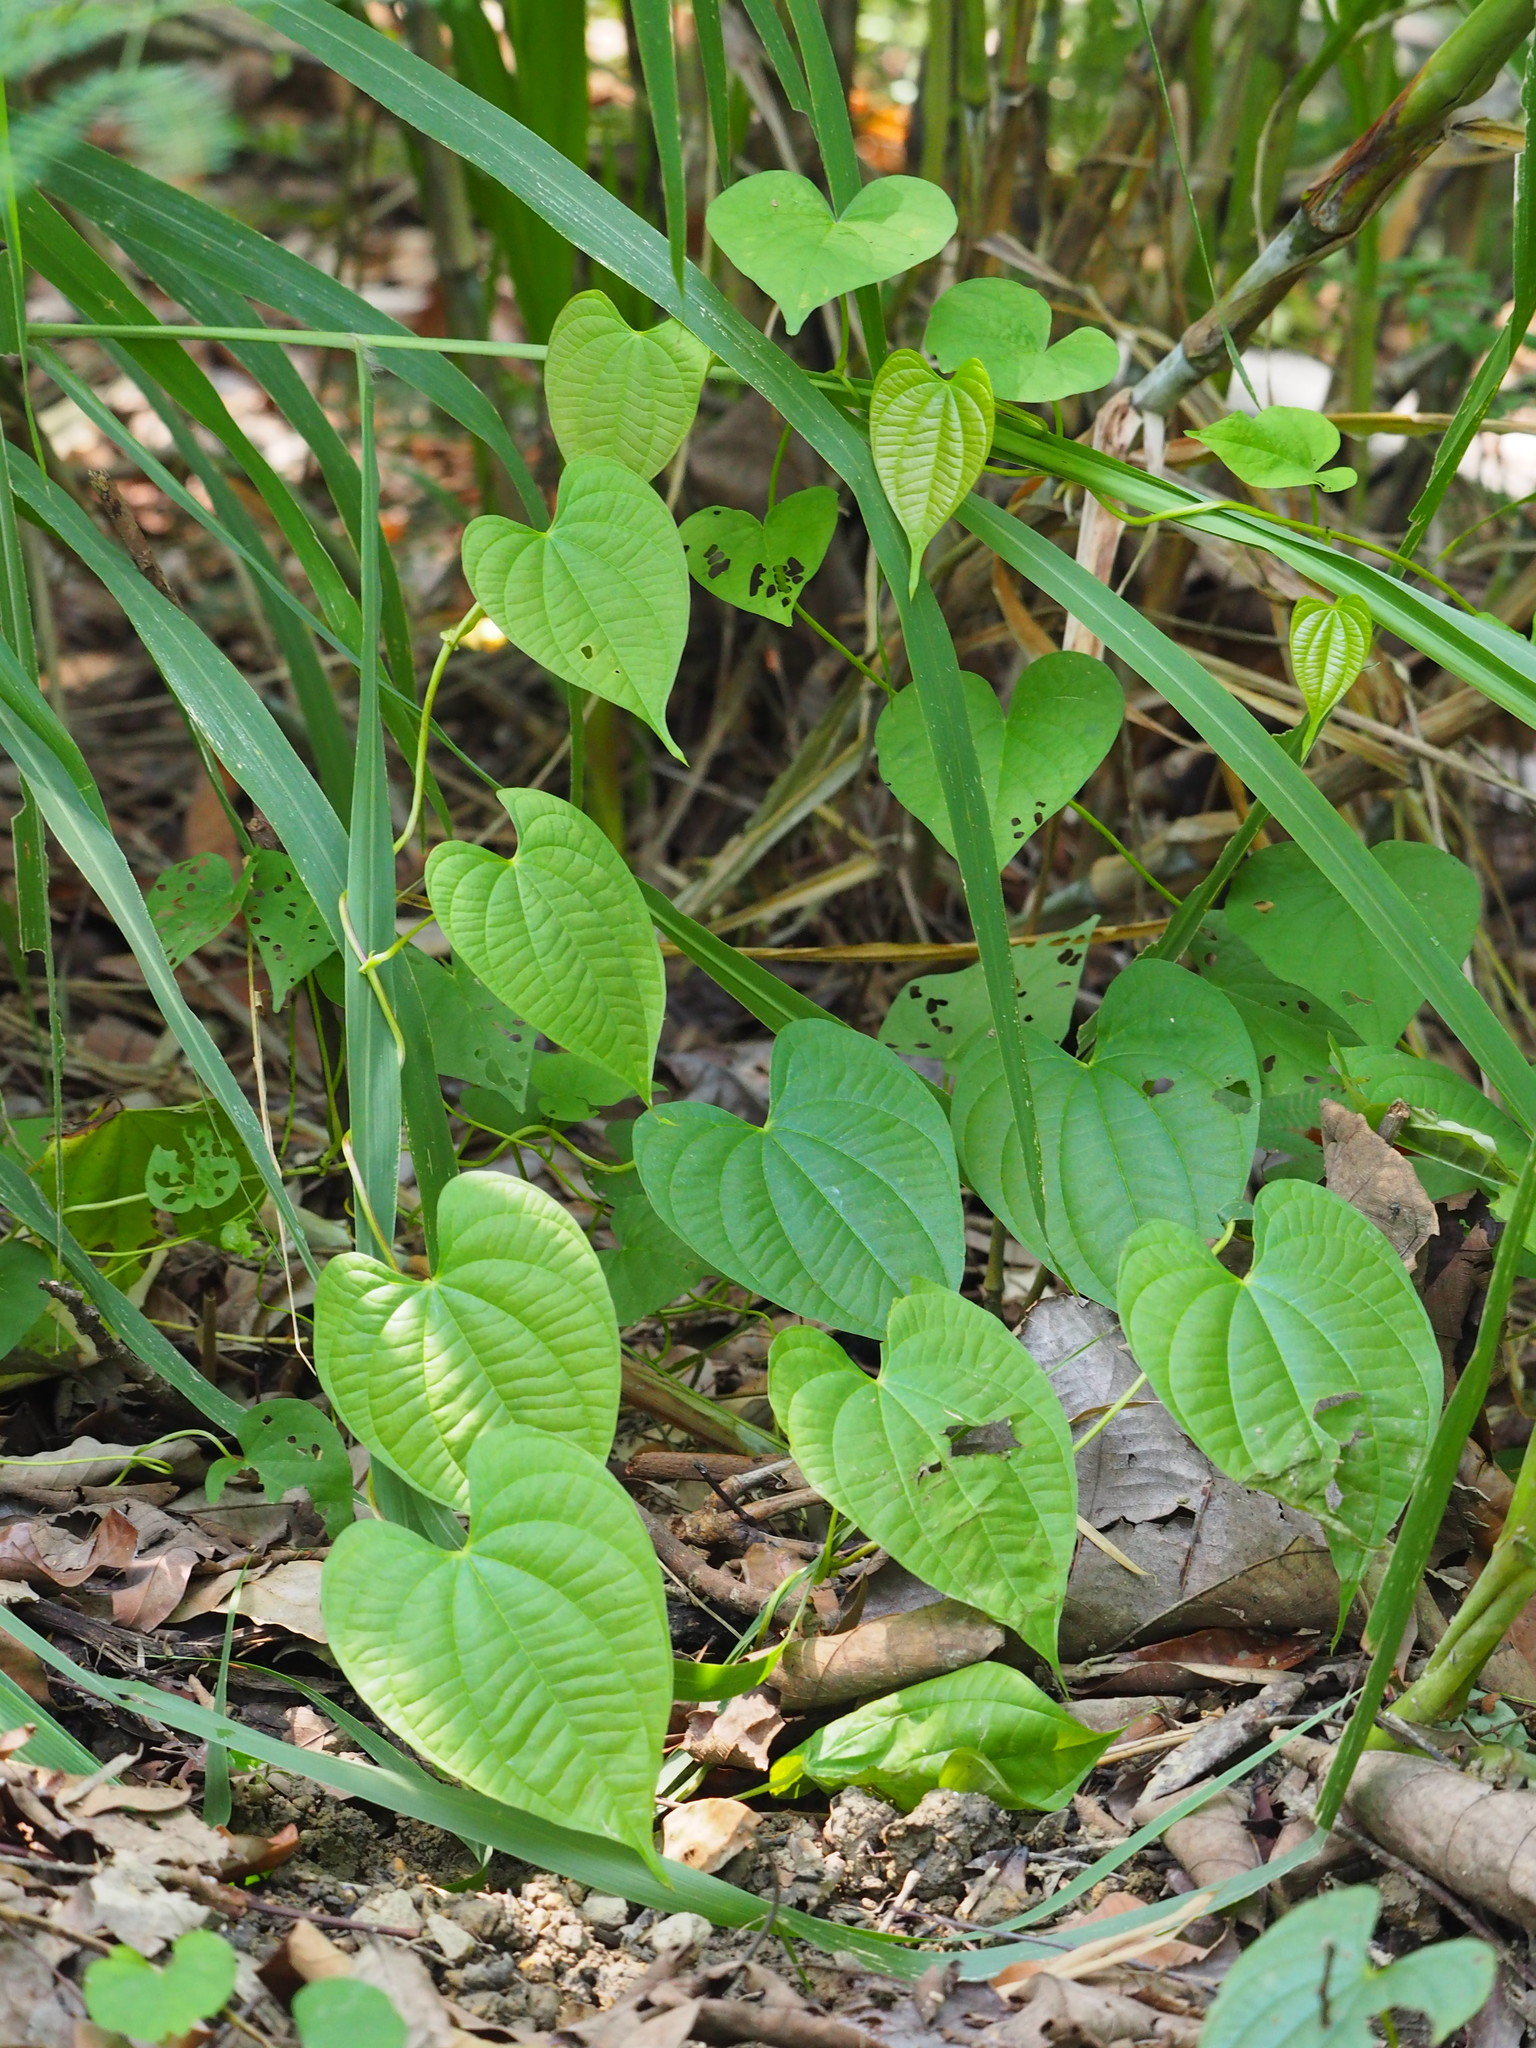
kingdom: Plantae
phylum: Tracheophyta
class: Liliopsida
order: Dioscoreales
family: Dioscoreaceae
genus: Dioscorea
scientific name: Dioscorea bulbifera
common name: Air yam
